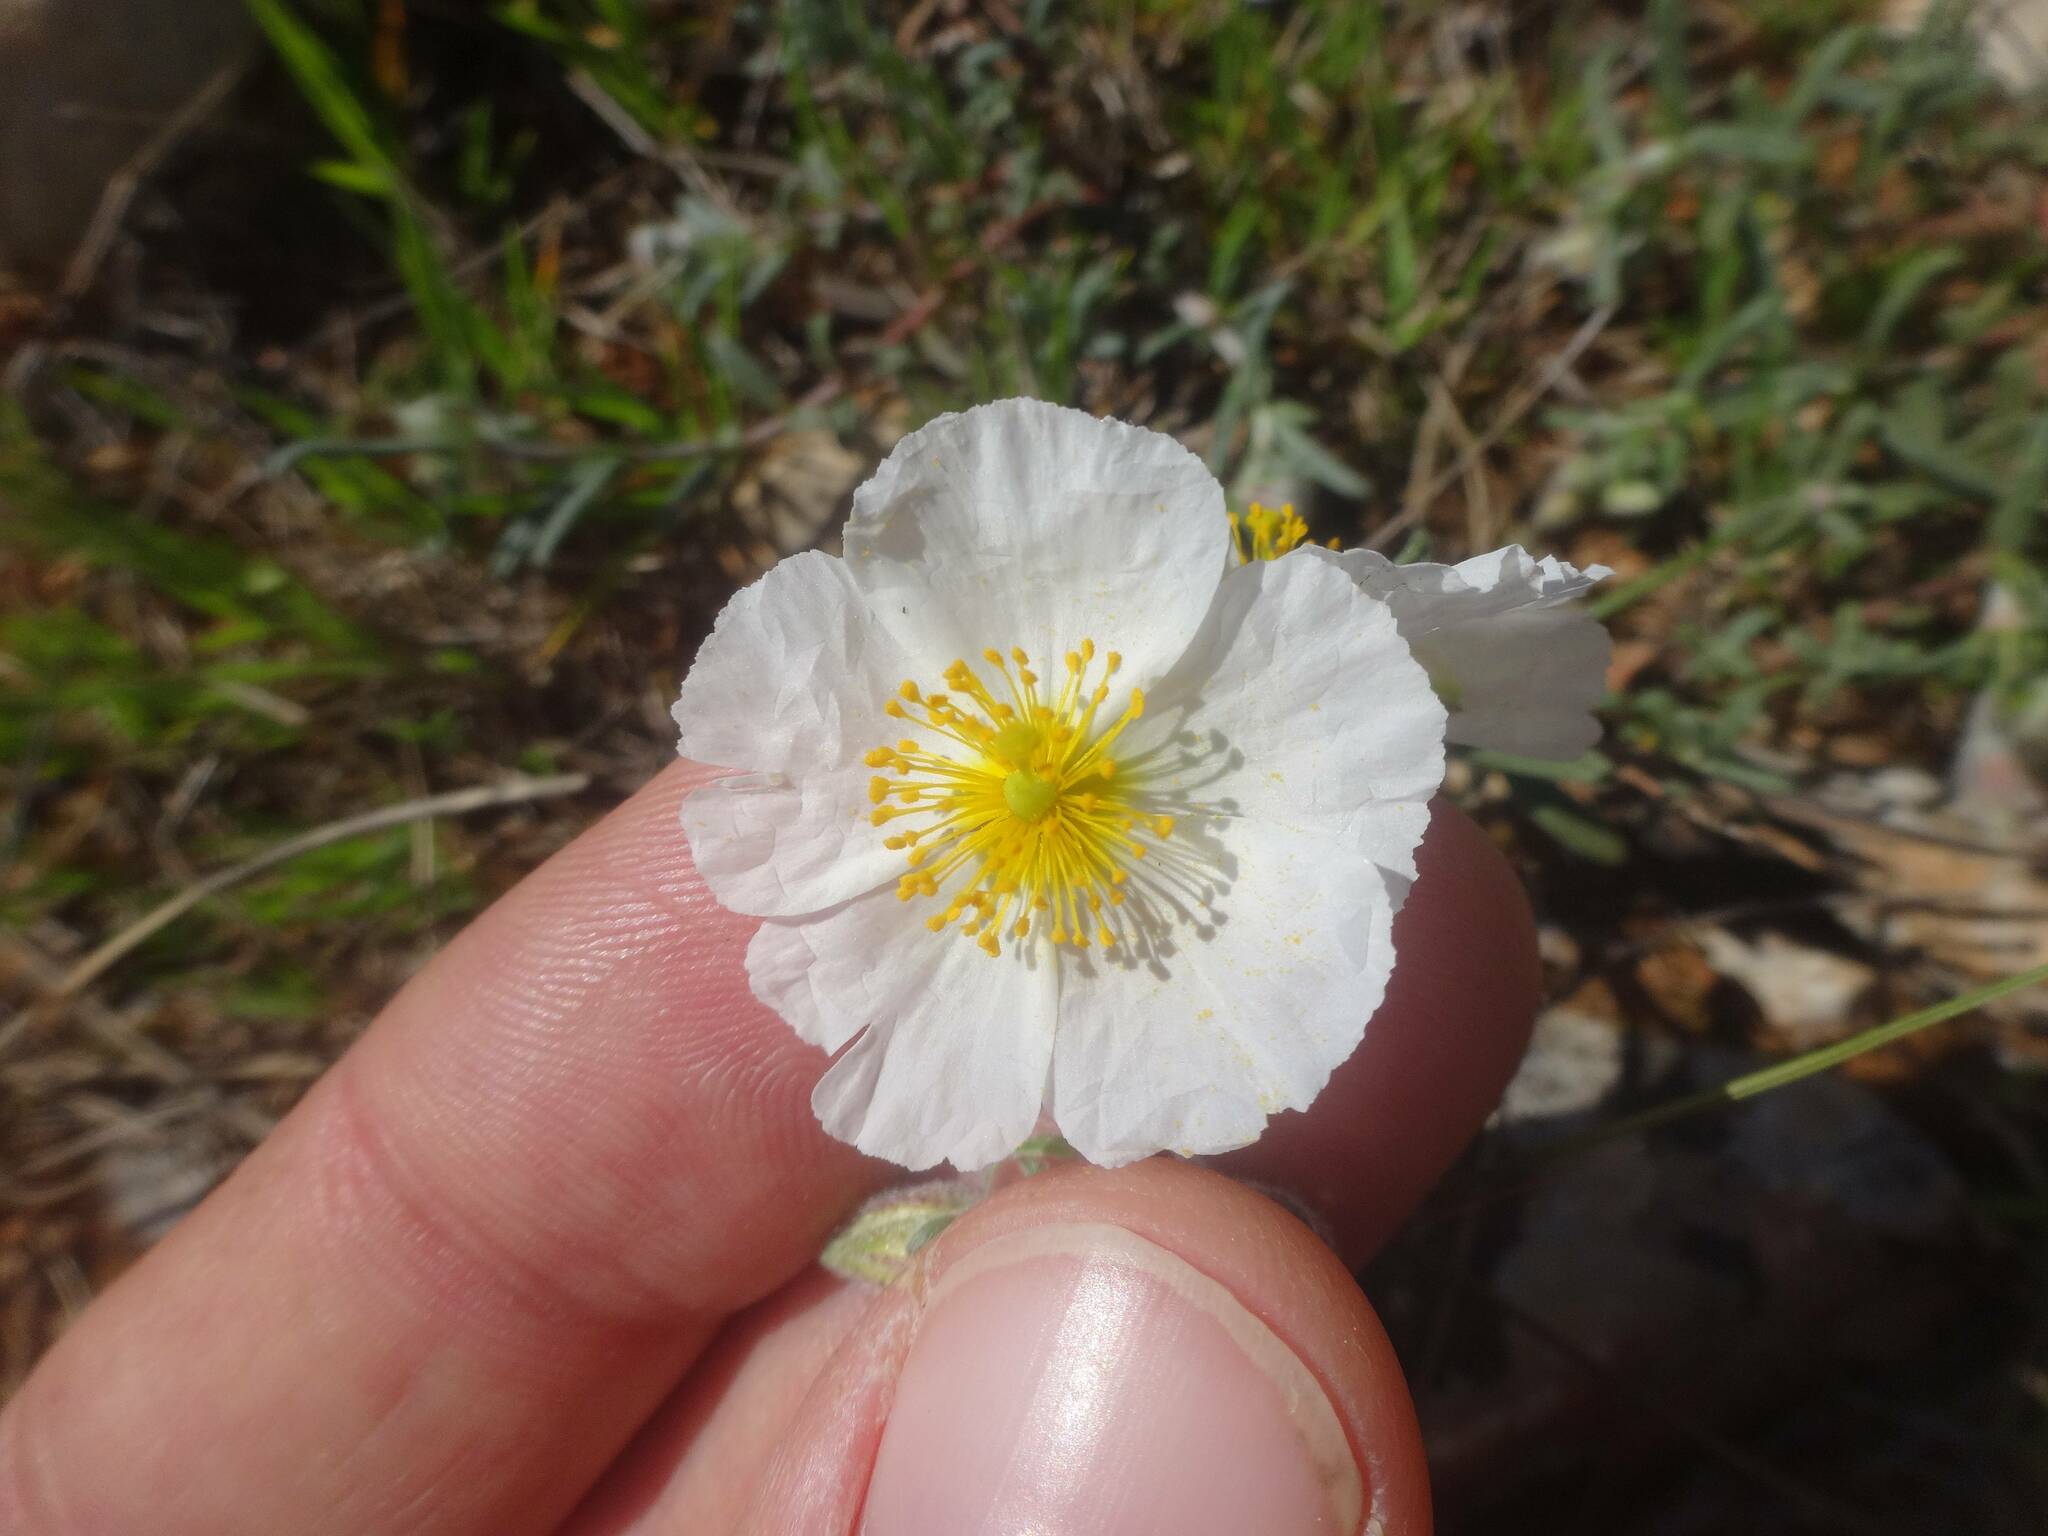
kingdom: Plantae
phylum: Tracheophyta
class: Magnoliopsida
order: Malvales
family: Cistaceae
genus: Helianthemum
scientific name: Helianthemum apenninum
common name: White rock-rose
